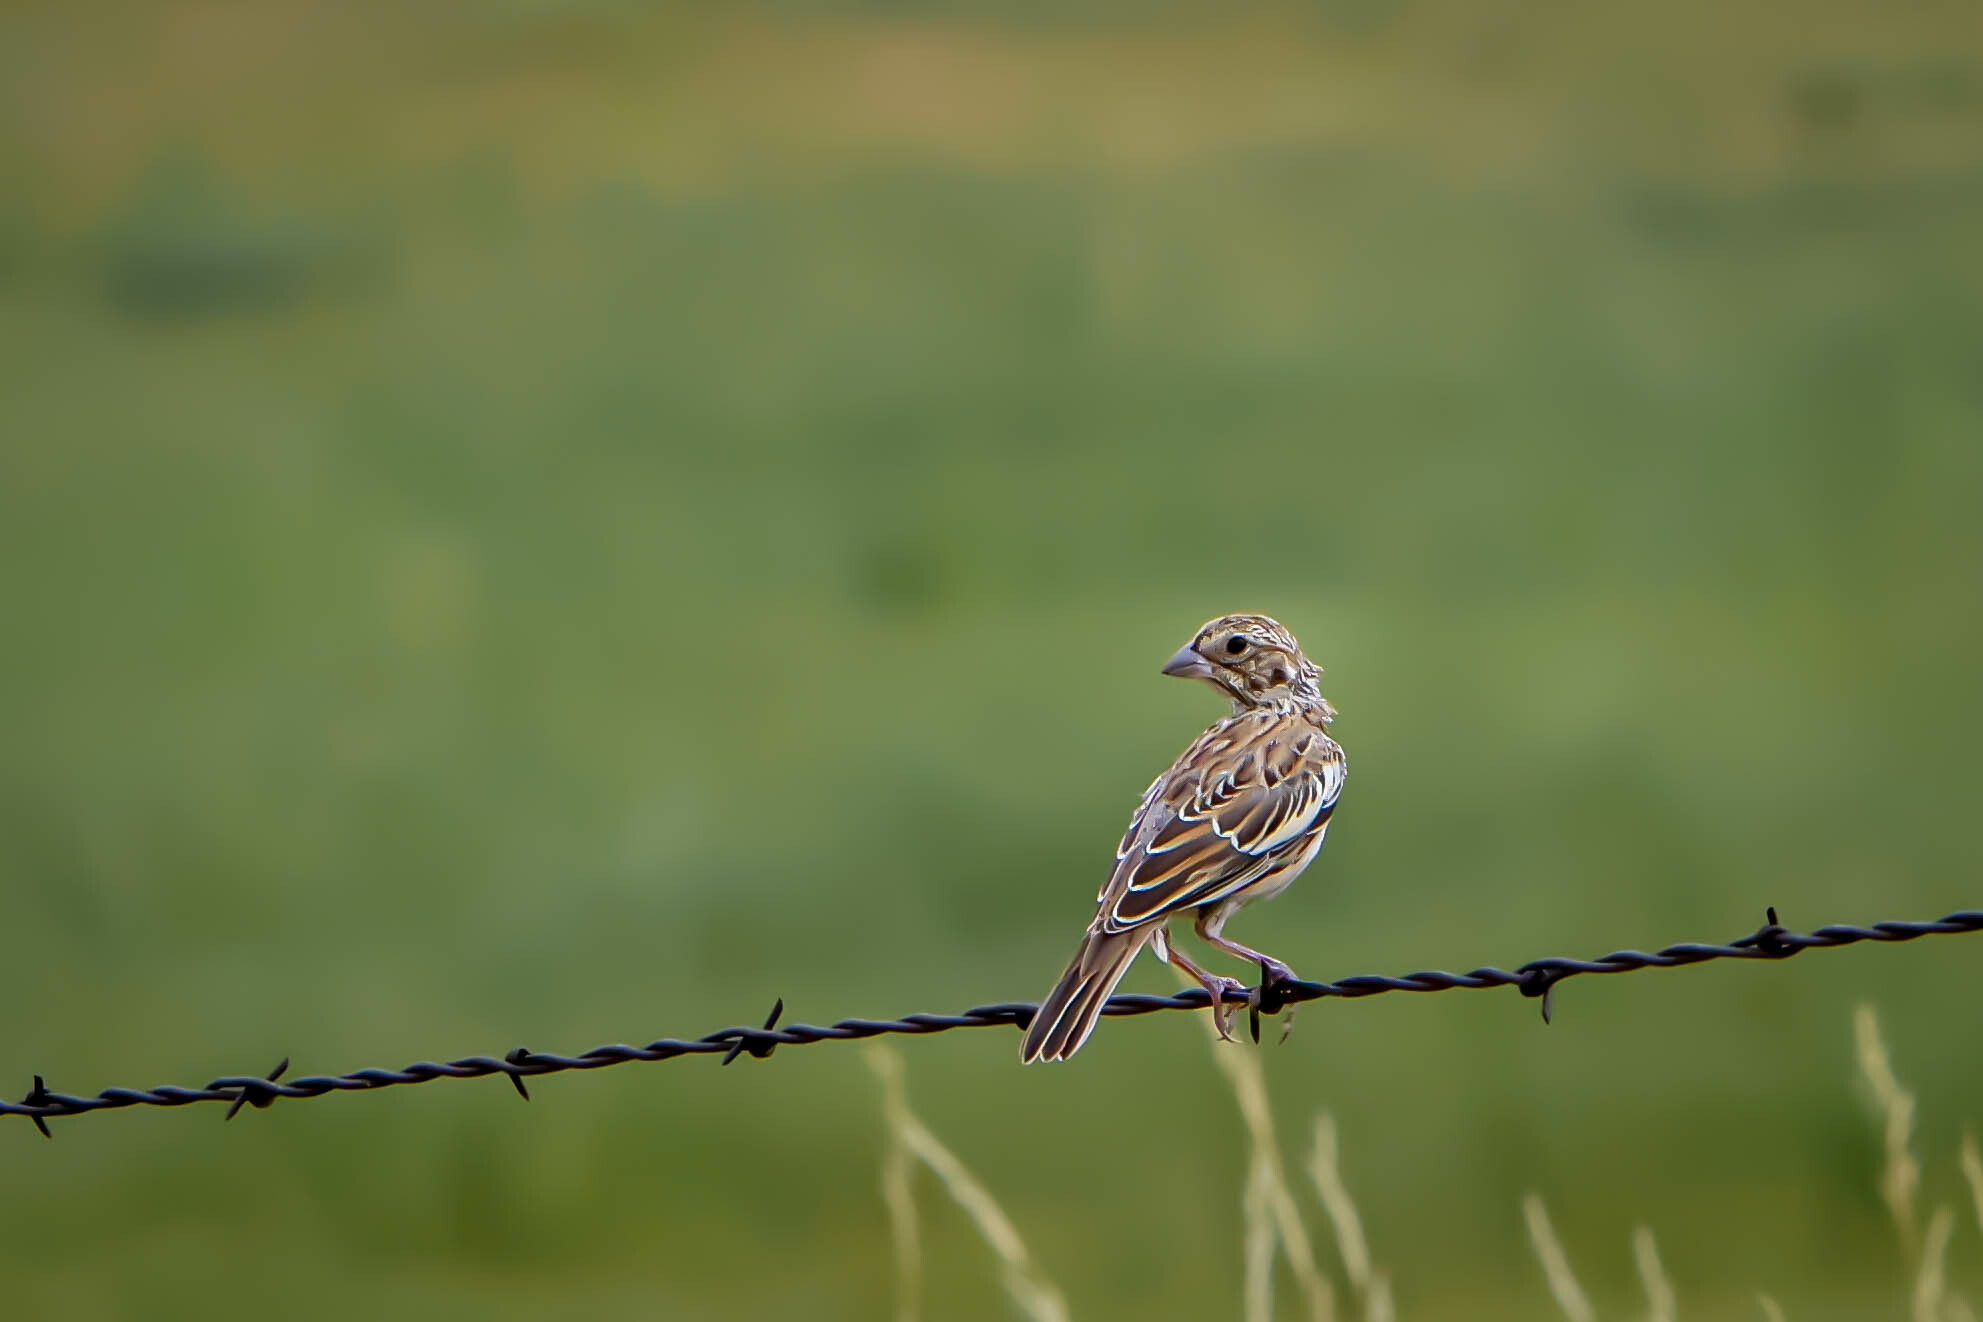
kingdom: Animalia
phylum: Chordata
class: Aves
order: Passeriformes
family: Passerellidae
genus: Calamospiza
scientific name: Calamospiza melanocorys
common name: Lark bunting
